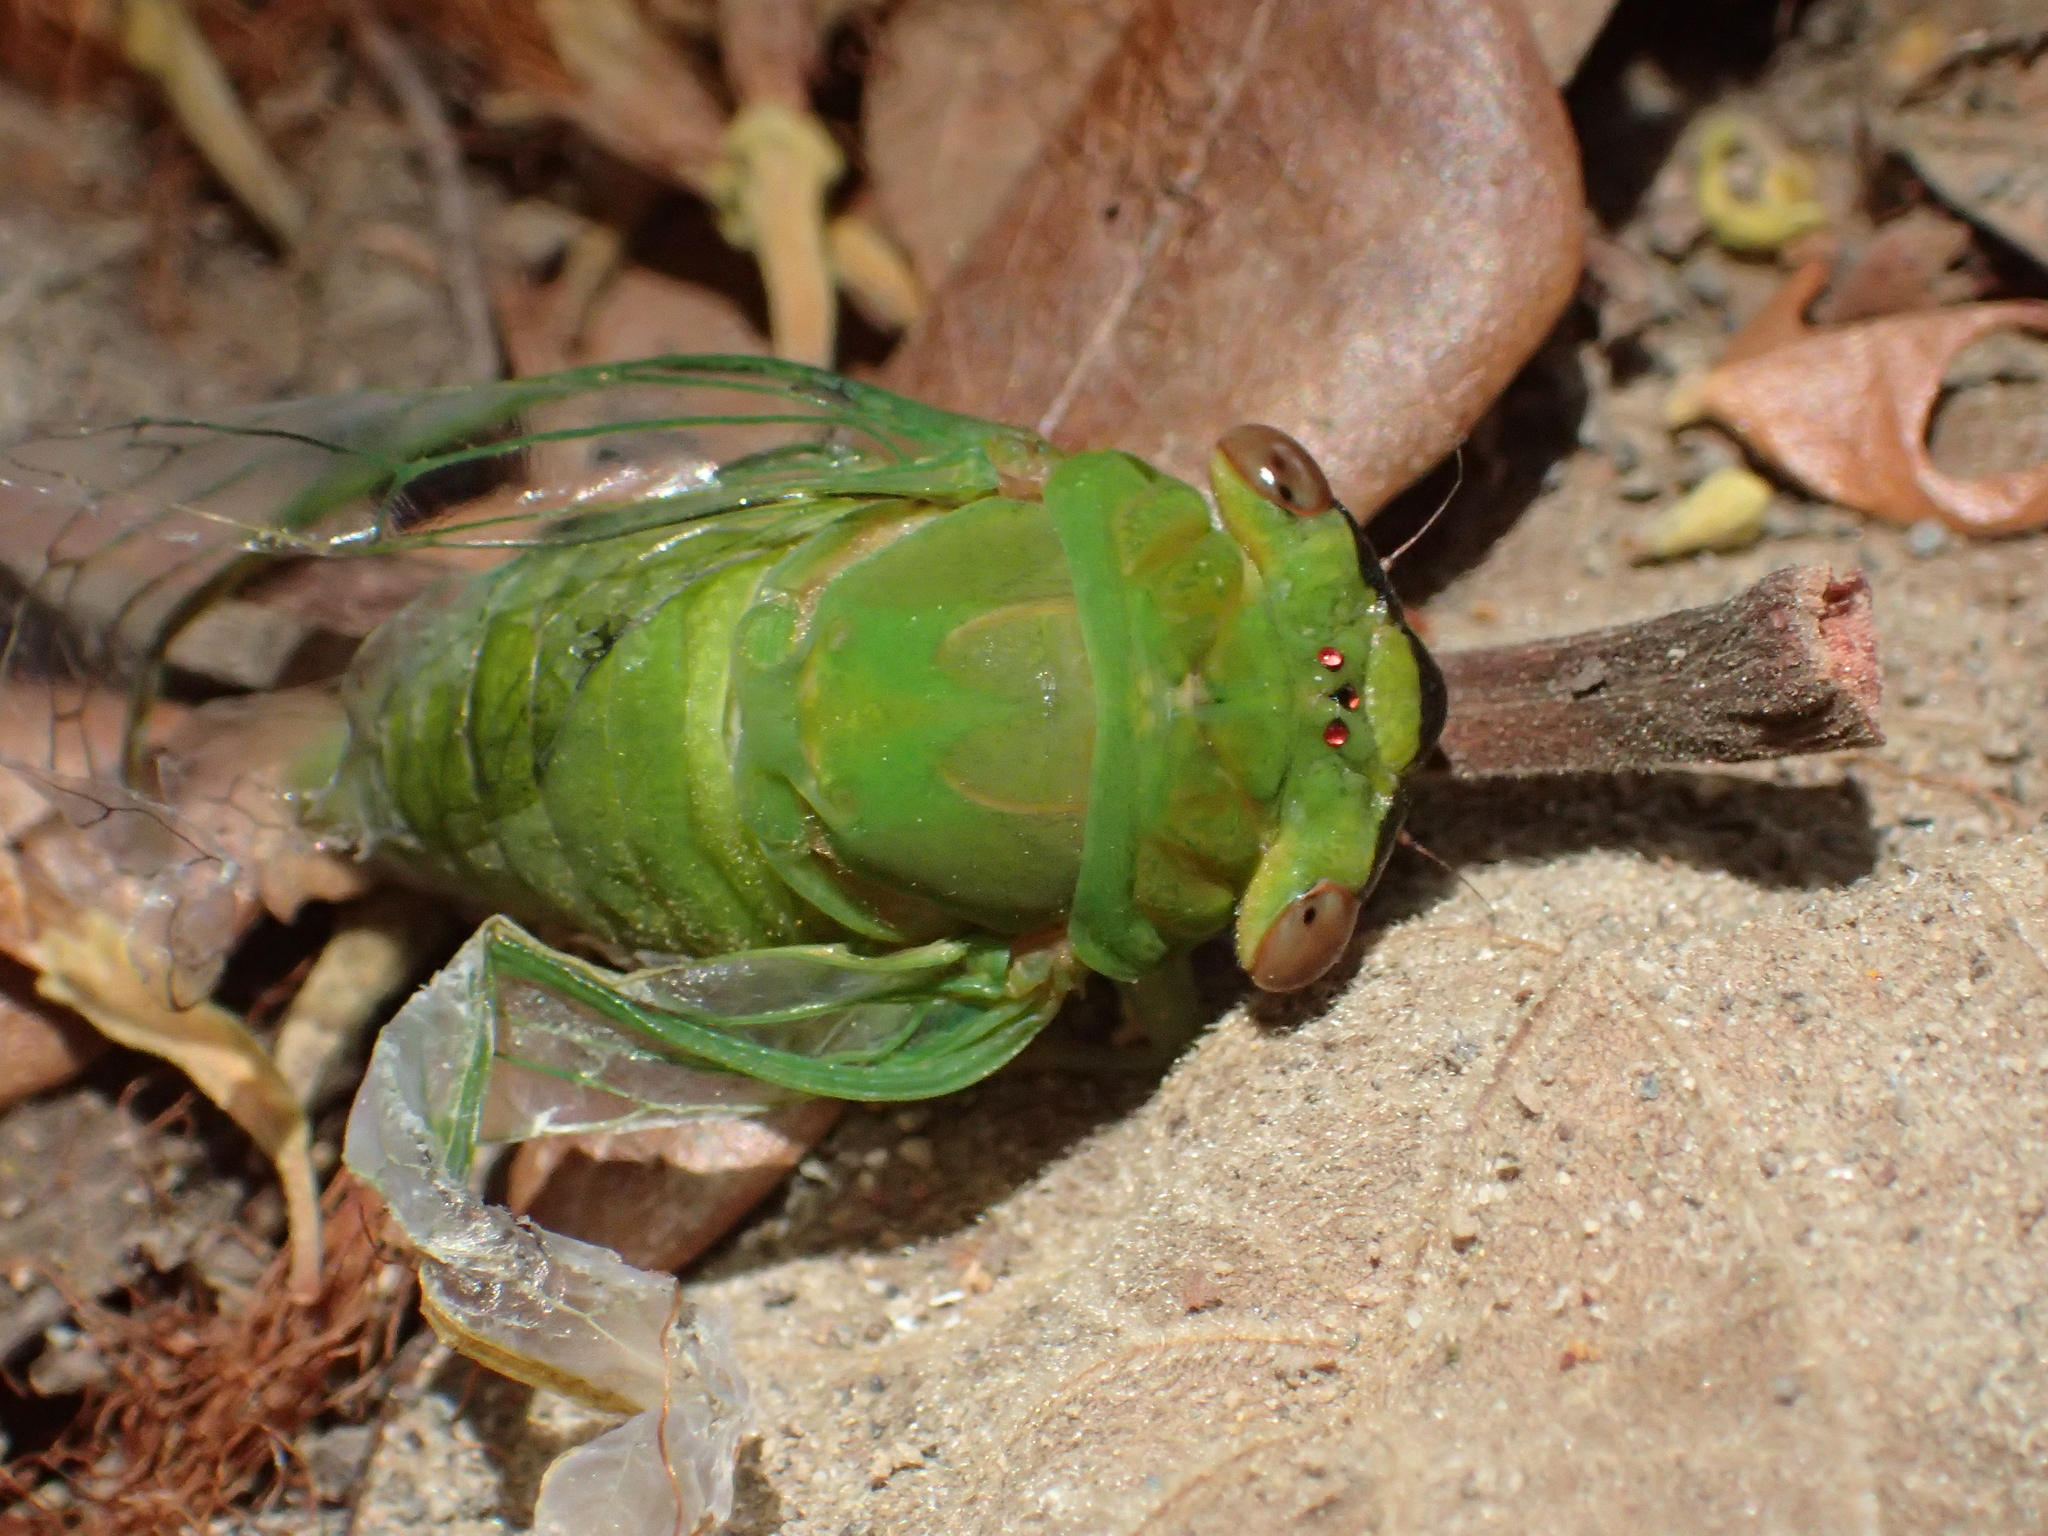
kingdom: Animalia
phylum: Arthropoda
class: Insecta
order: Hemiptera
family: Cicadidae
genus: Chremistica
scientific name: Chremistica ochracea
